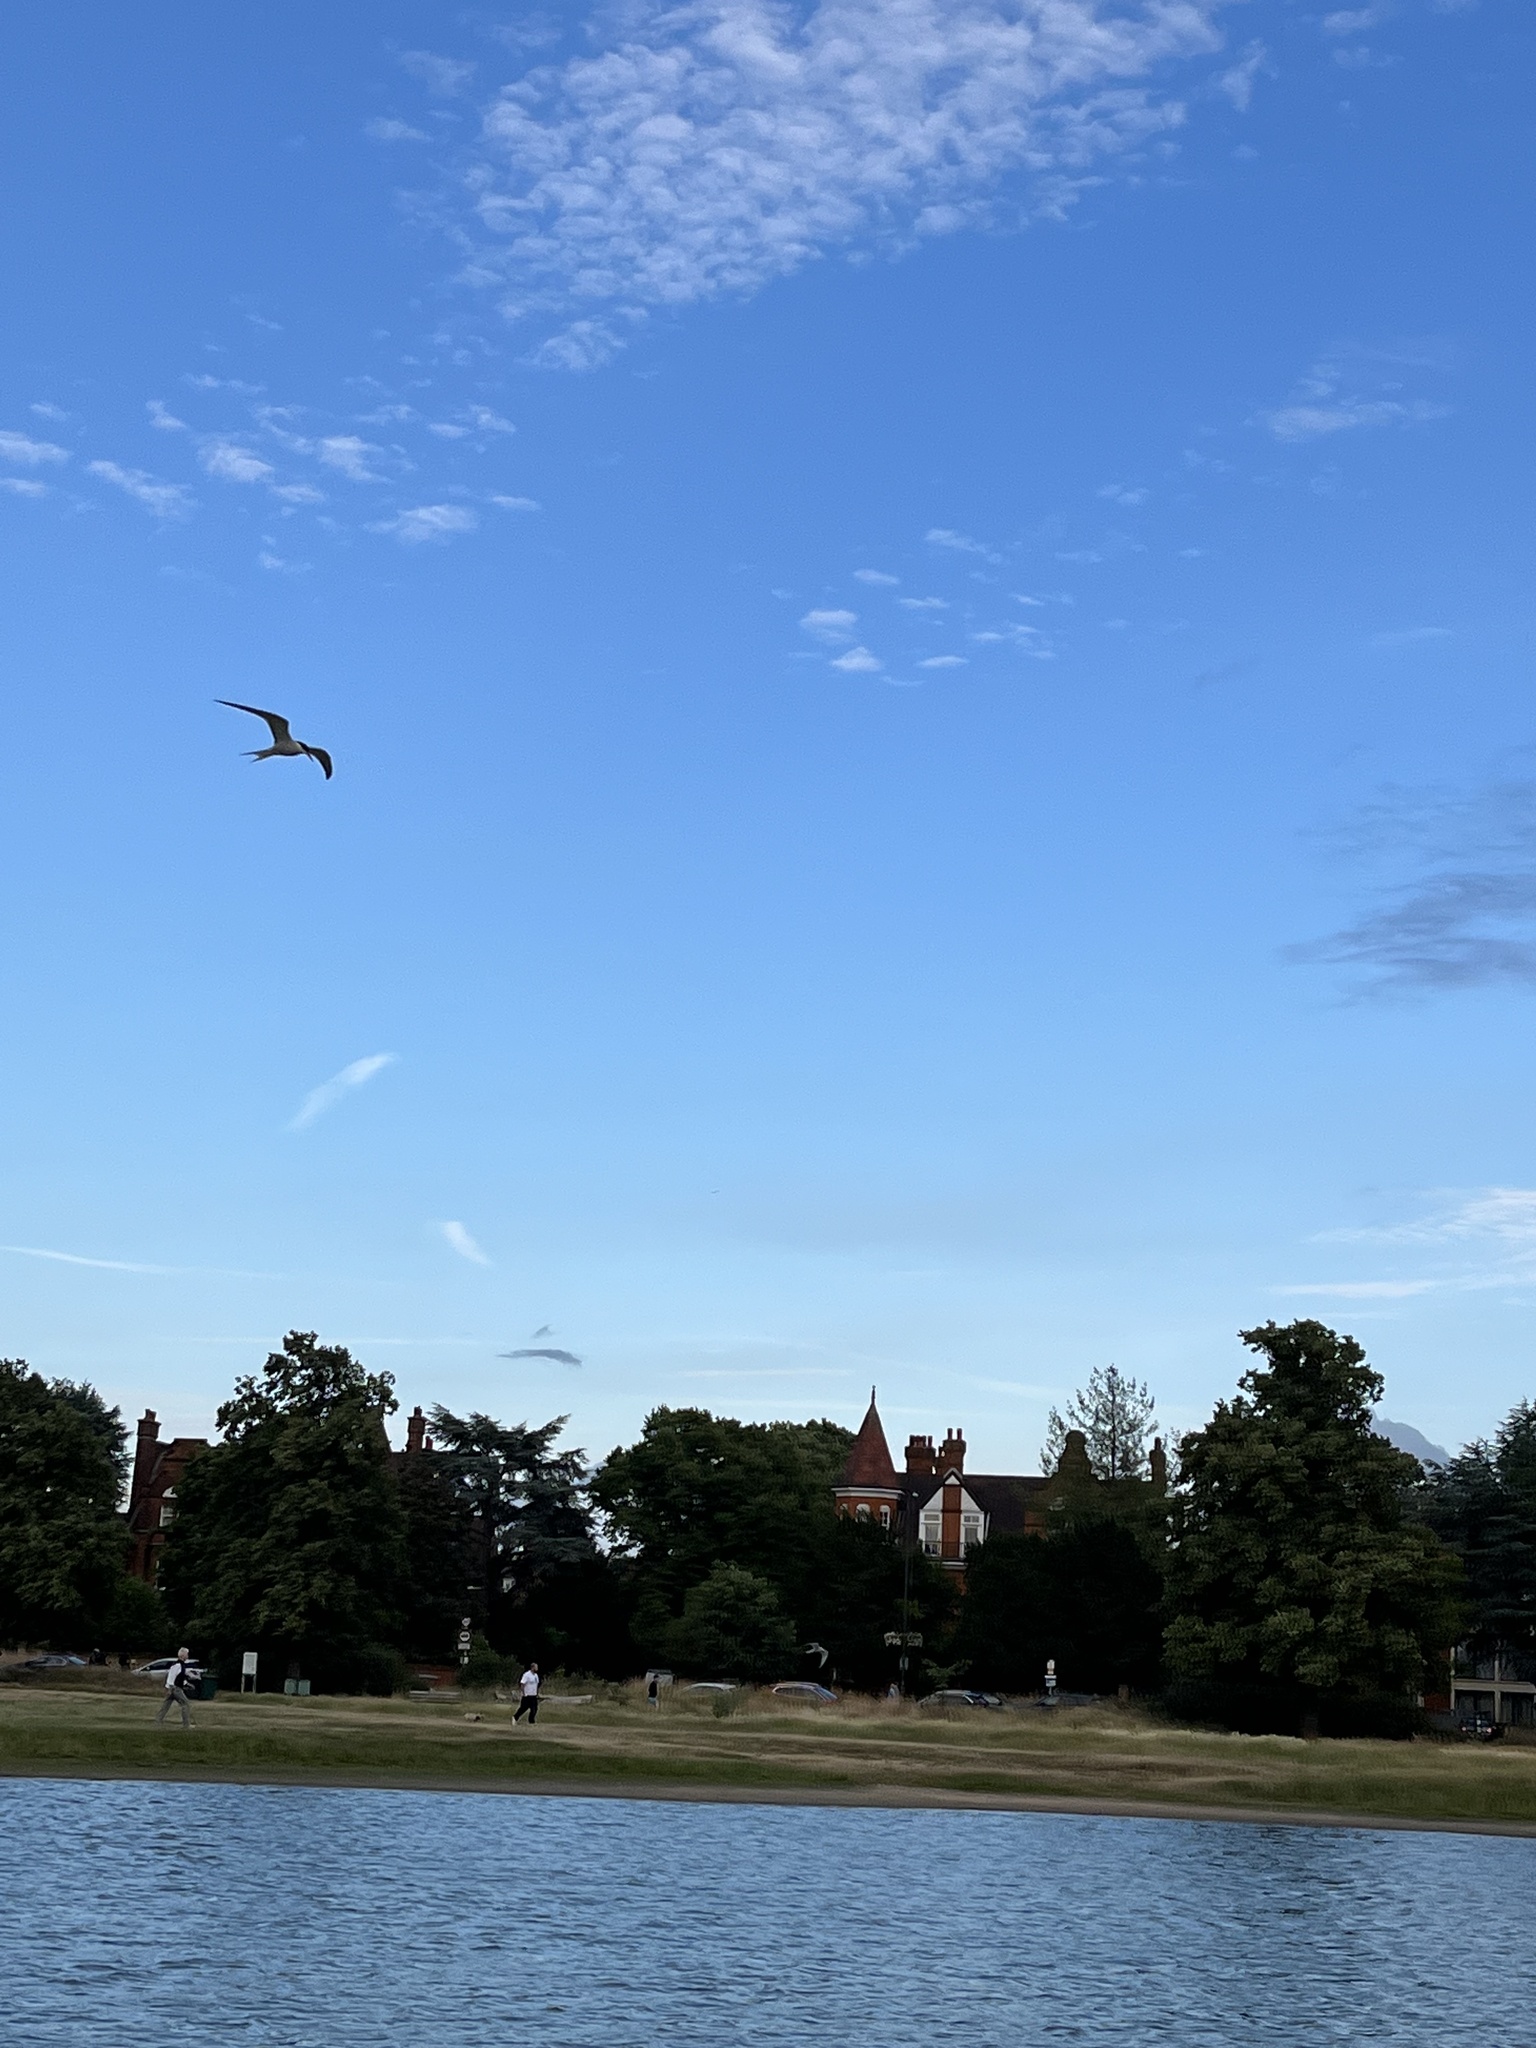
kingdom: Animalia
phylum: Chordata
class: Aves
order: Charadriiformes
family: Laridae
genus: Sterna
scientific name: Sterna hirundo
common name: Common tern
